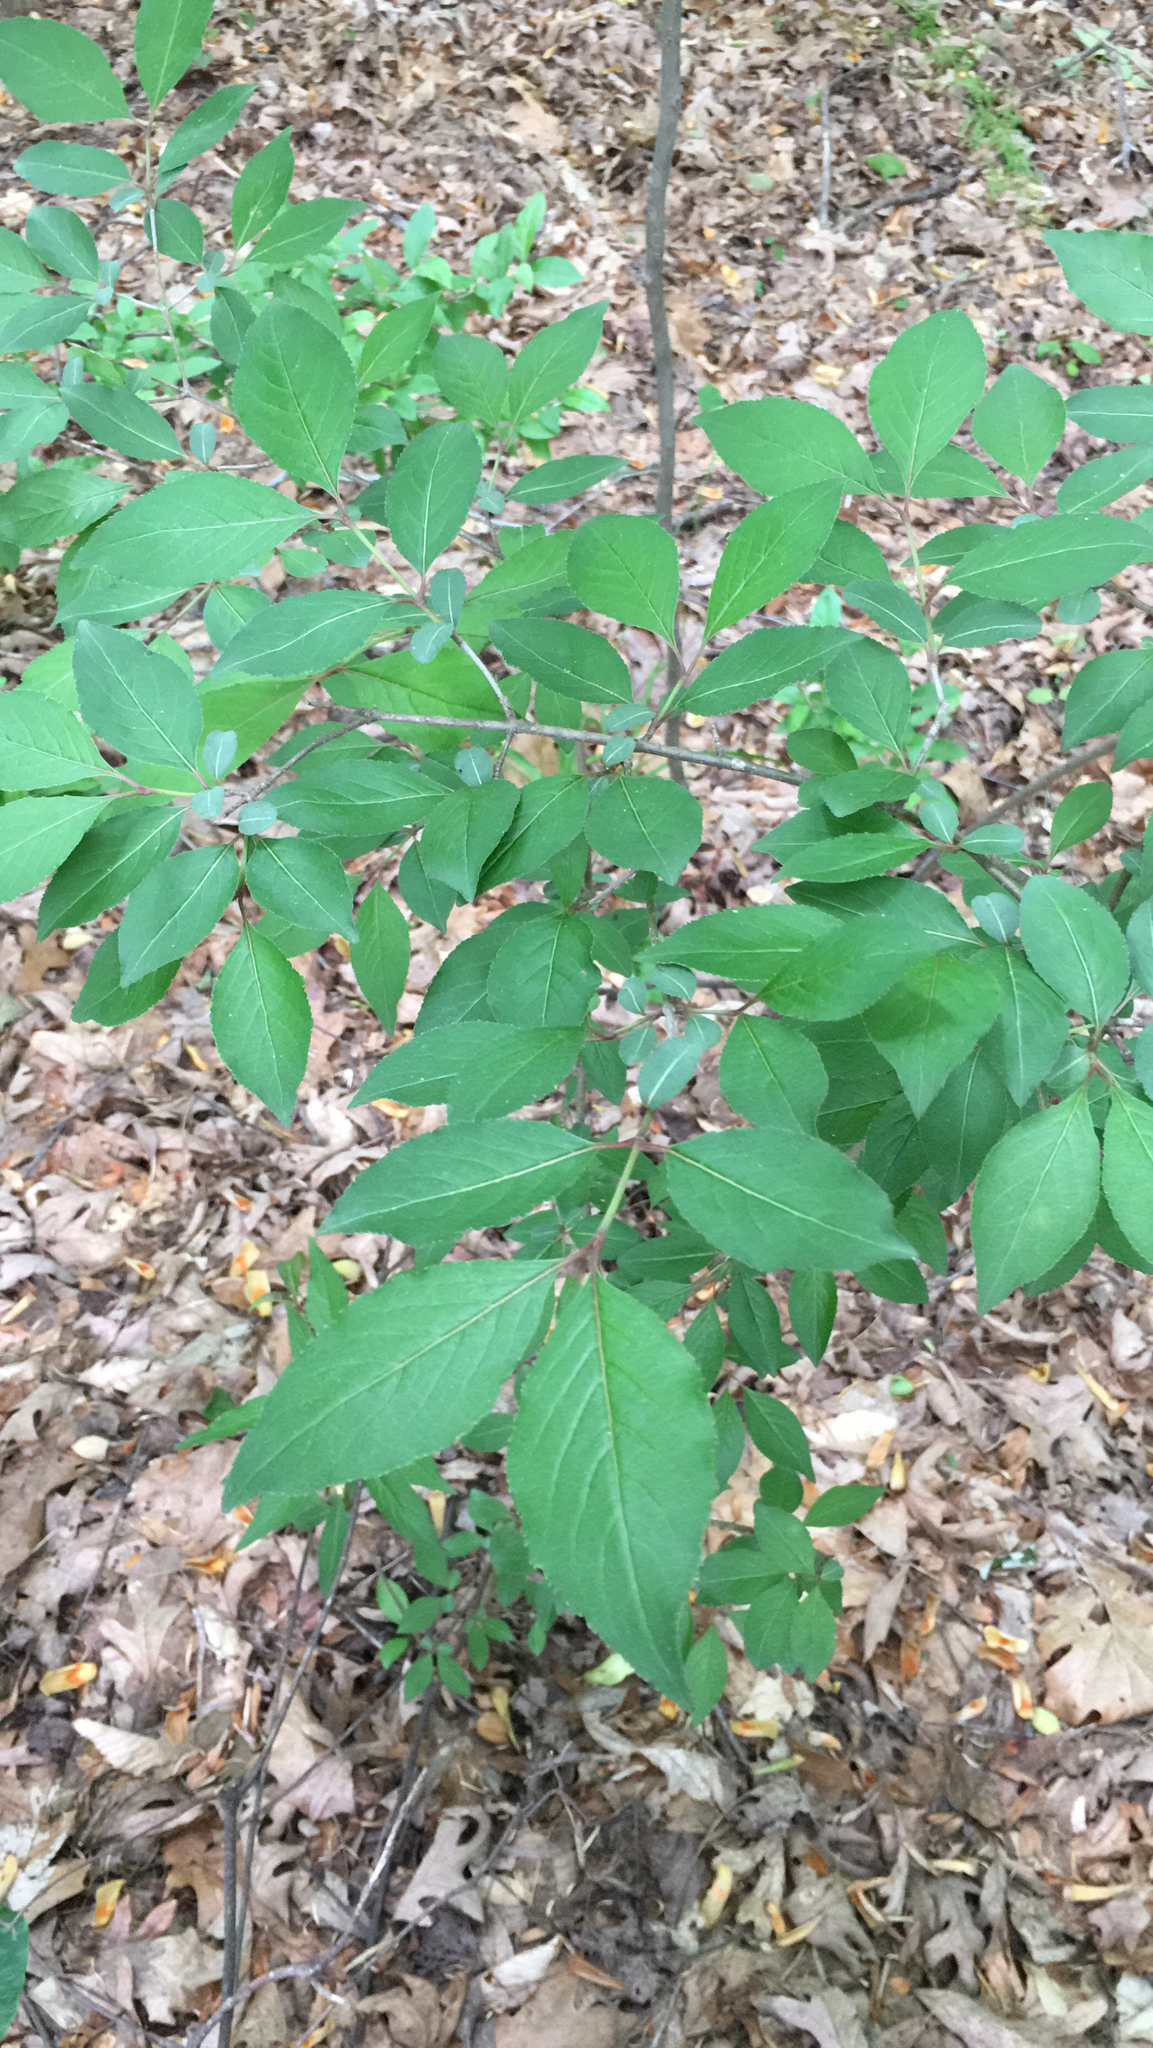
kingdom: Plantae
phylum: Tracheophyta
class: Magnoliopsida
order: Dipsacales
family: Viburnaceae
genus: Viburnum
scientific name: Viburnum prunifolium
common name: Black haw
